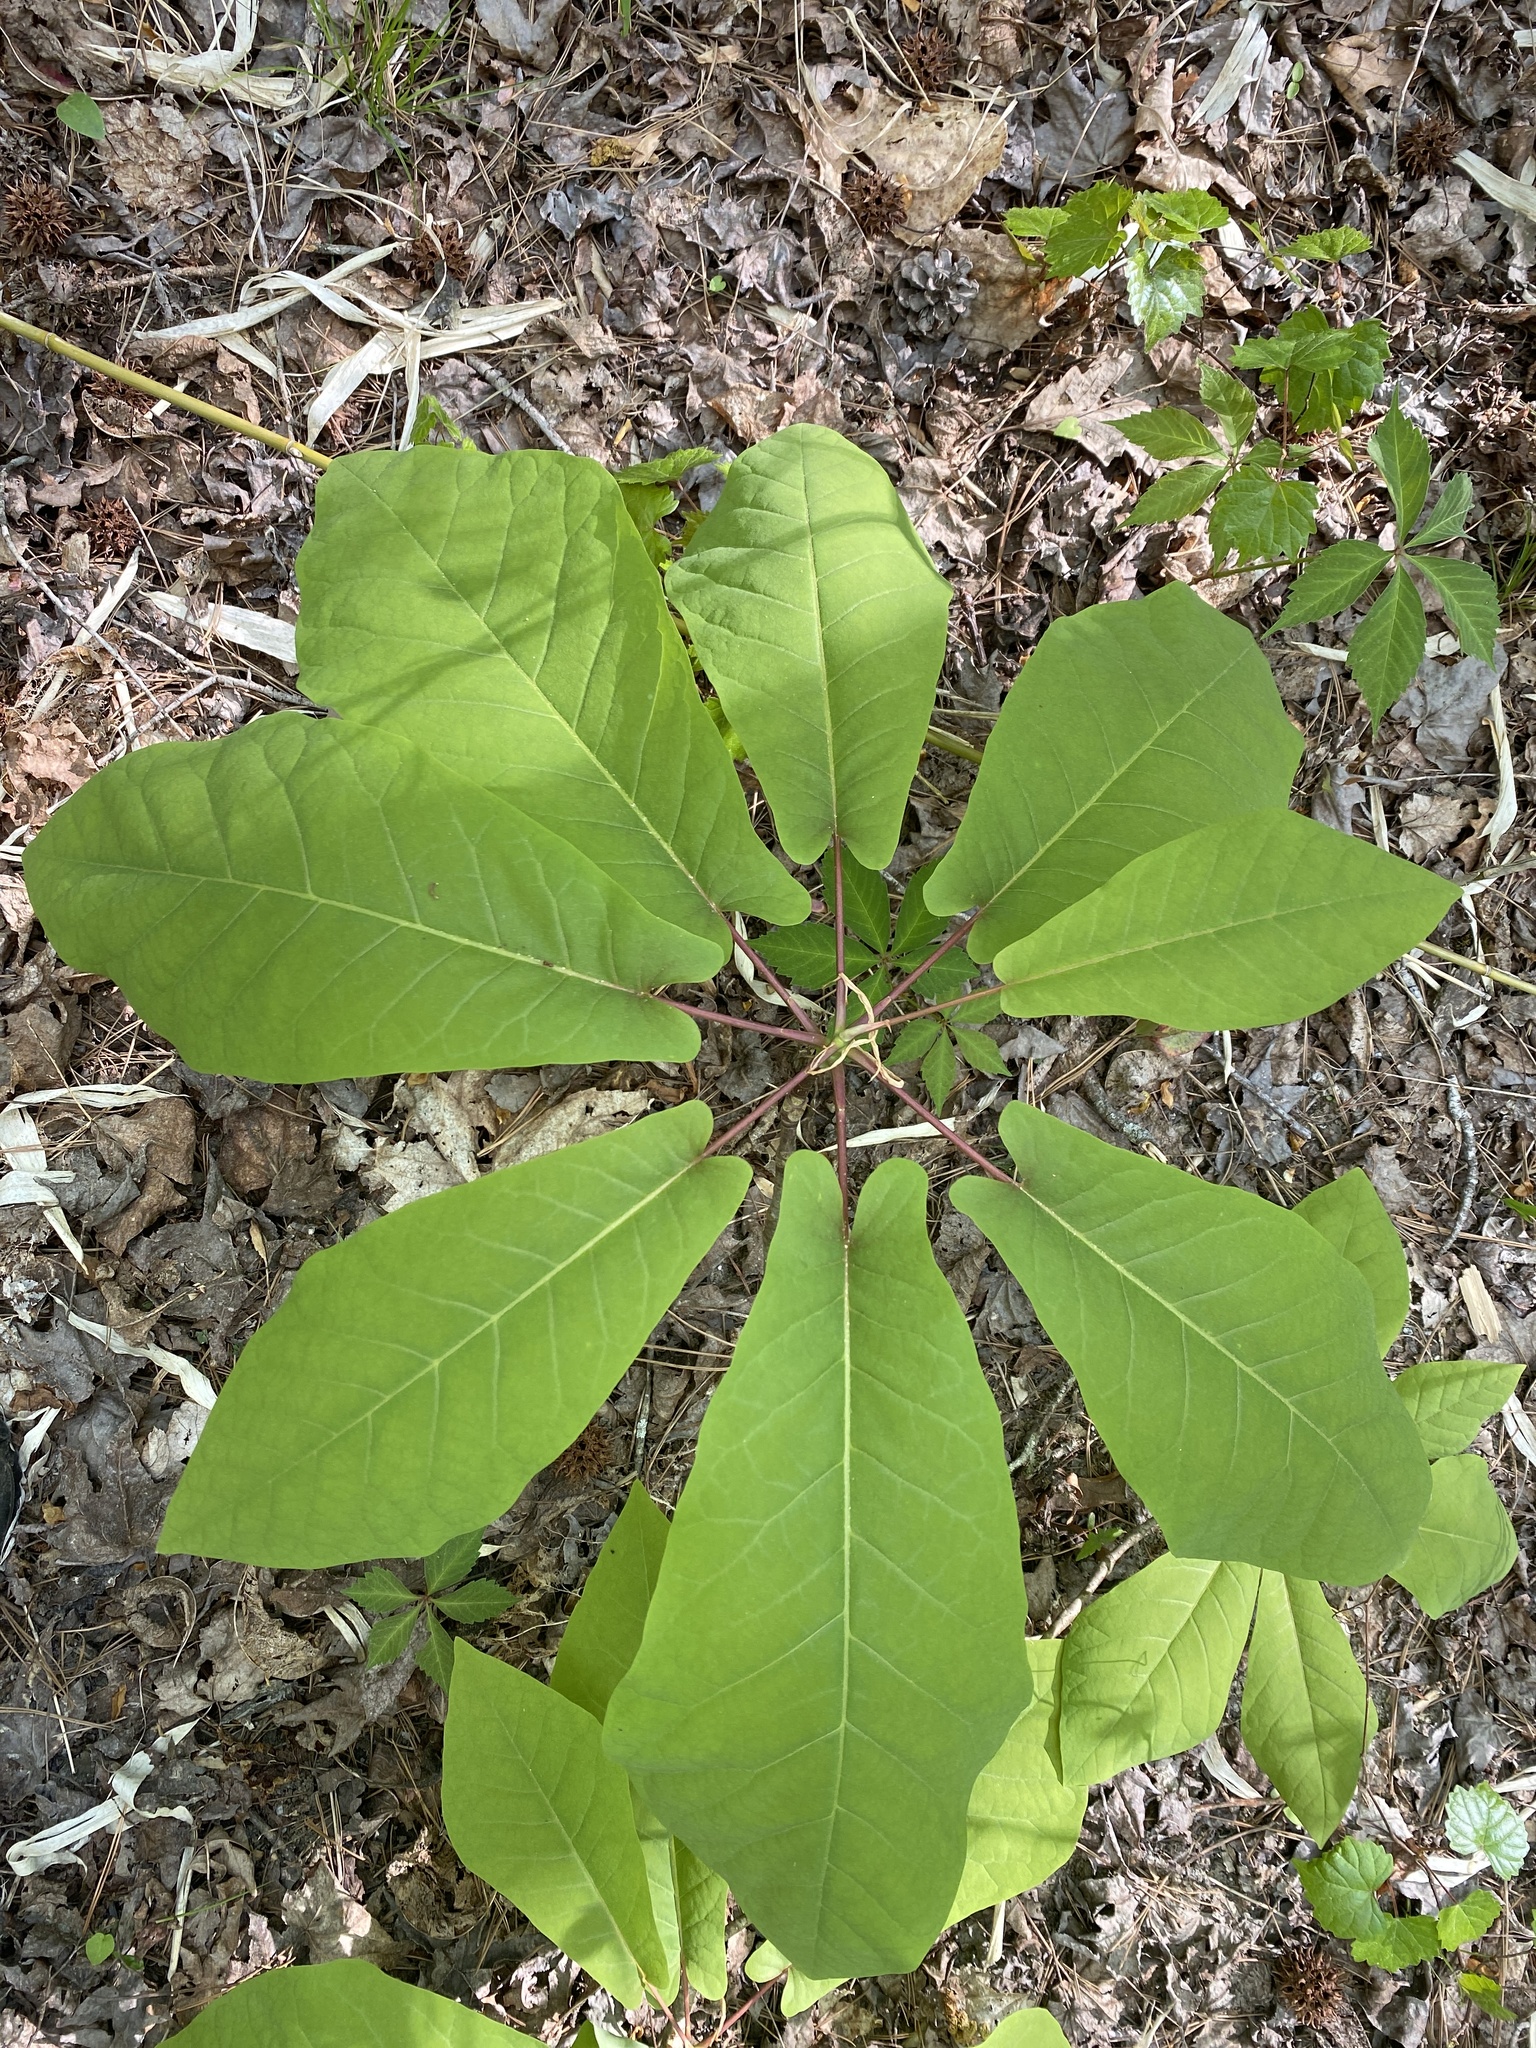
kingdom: Plantae
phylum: Tracheophyta
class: Magnoliopsida
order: Magnoliales
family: Magnoliaceae
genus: Magnolia
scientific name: Magnolia fraseri
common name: Fraser's magnolia
